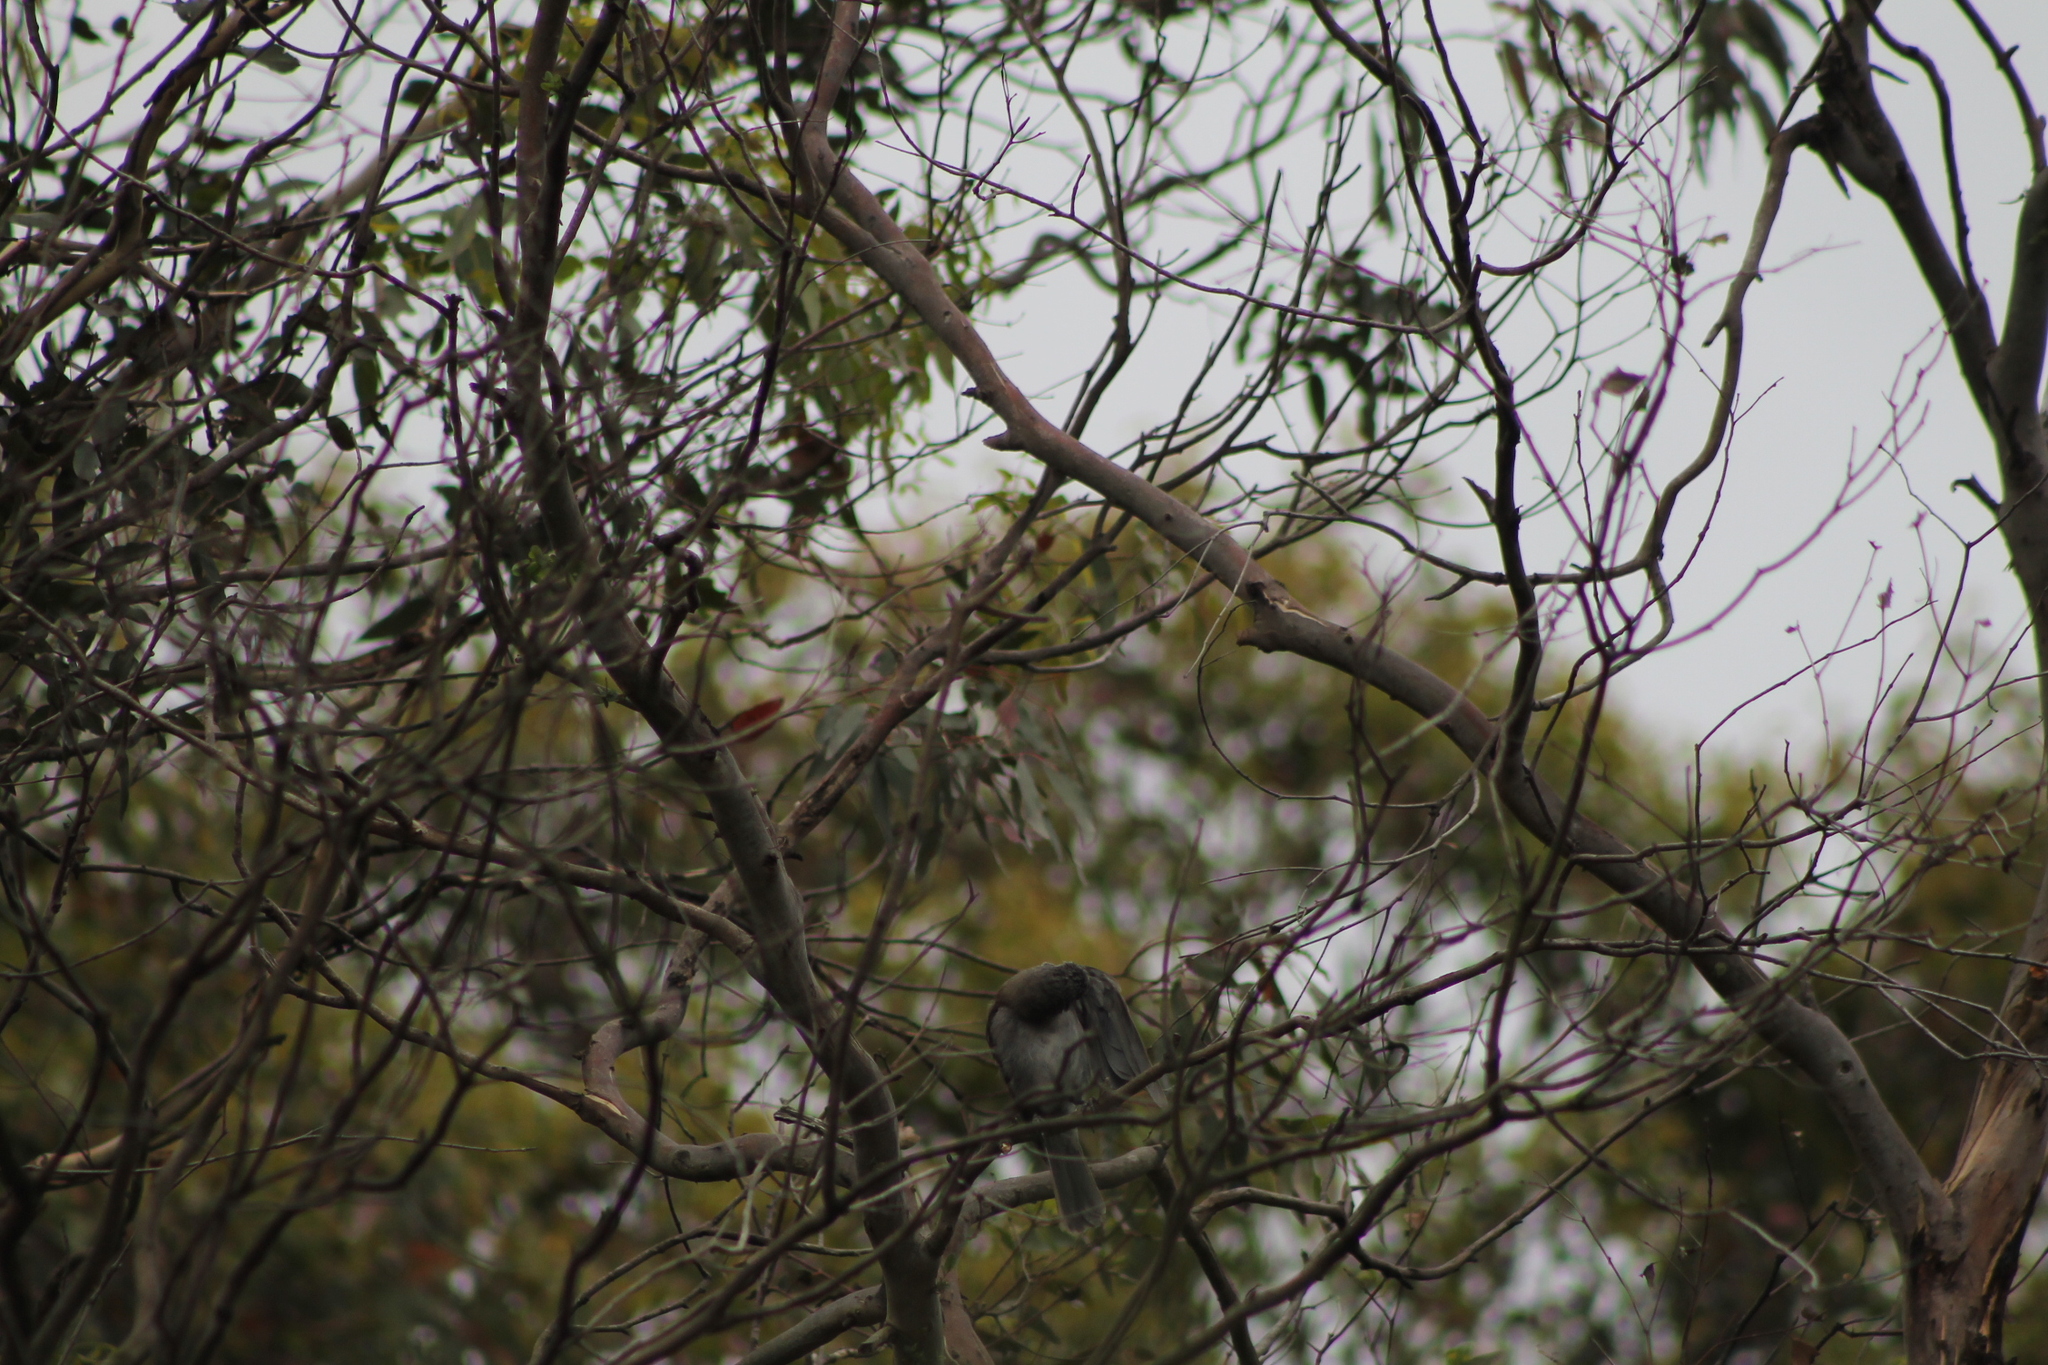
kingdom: Animalia
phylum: Chordata
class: Aves
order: Passeriformes
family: Pachycephalidae
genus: Colluricincla
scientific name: Colluricincla harmonica
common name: Grey shrikethrush
